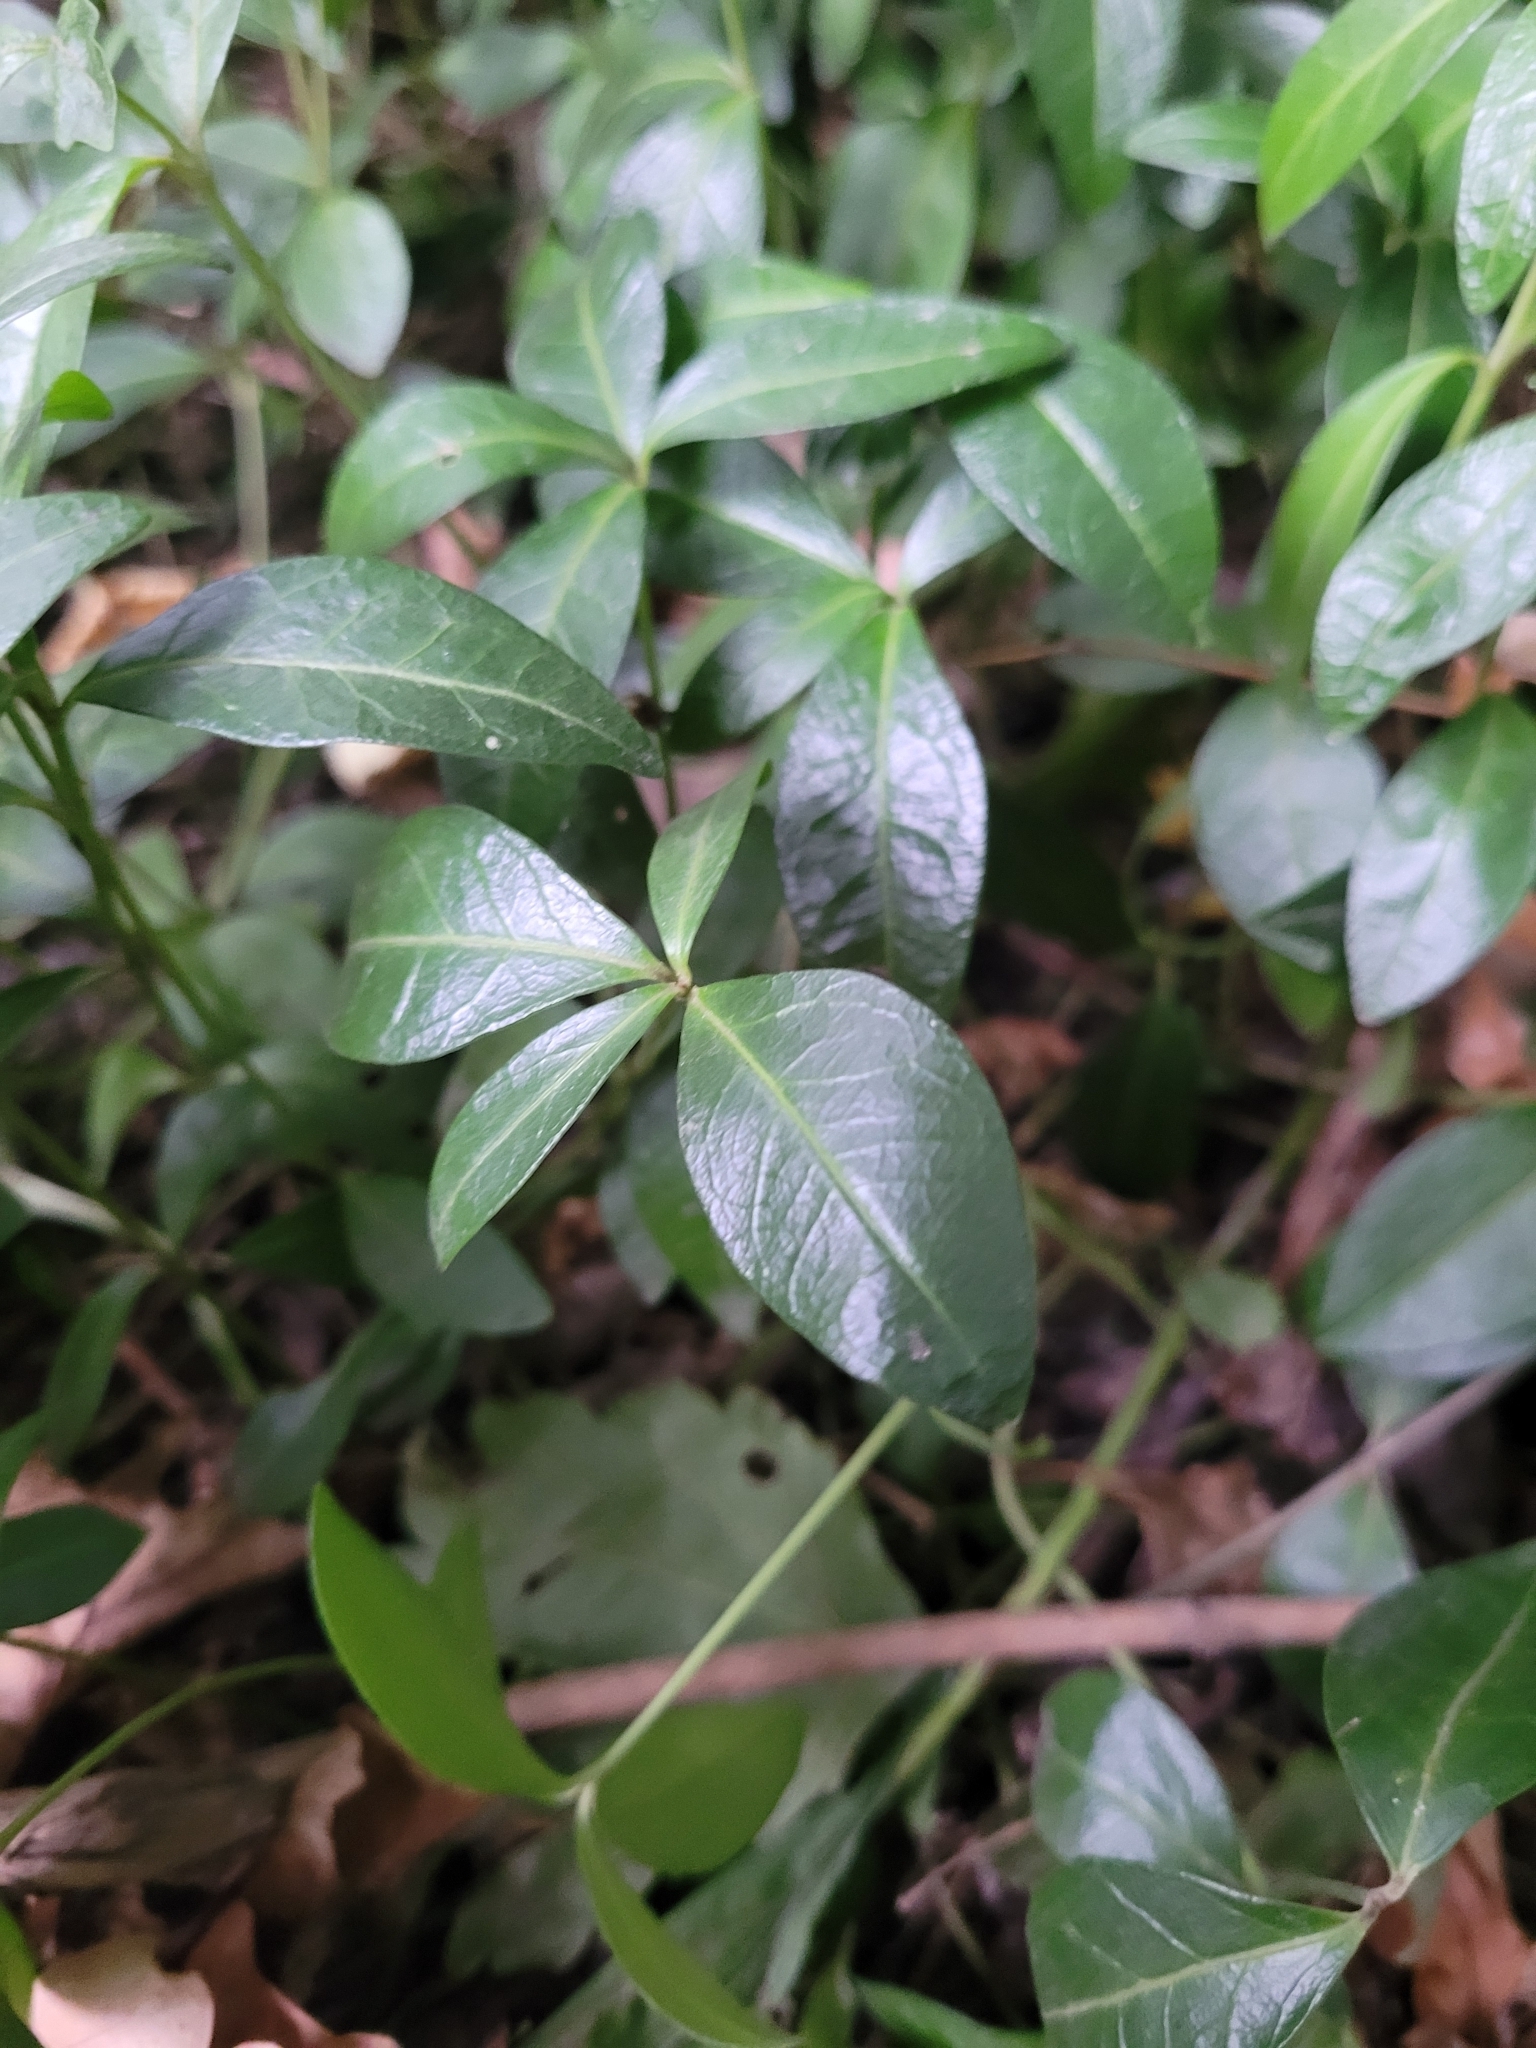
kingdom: Plantae
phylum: Tracheophyta
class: Magnoliopsida
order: Gentianales
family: Apocynaceae
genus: Vinca
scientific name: Vinca minor
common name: Lesser periwinkle
